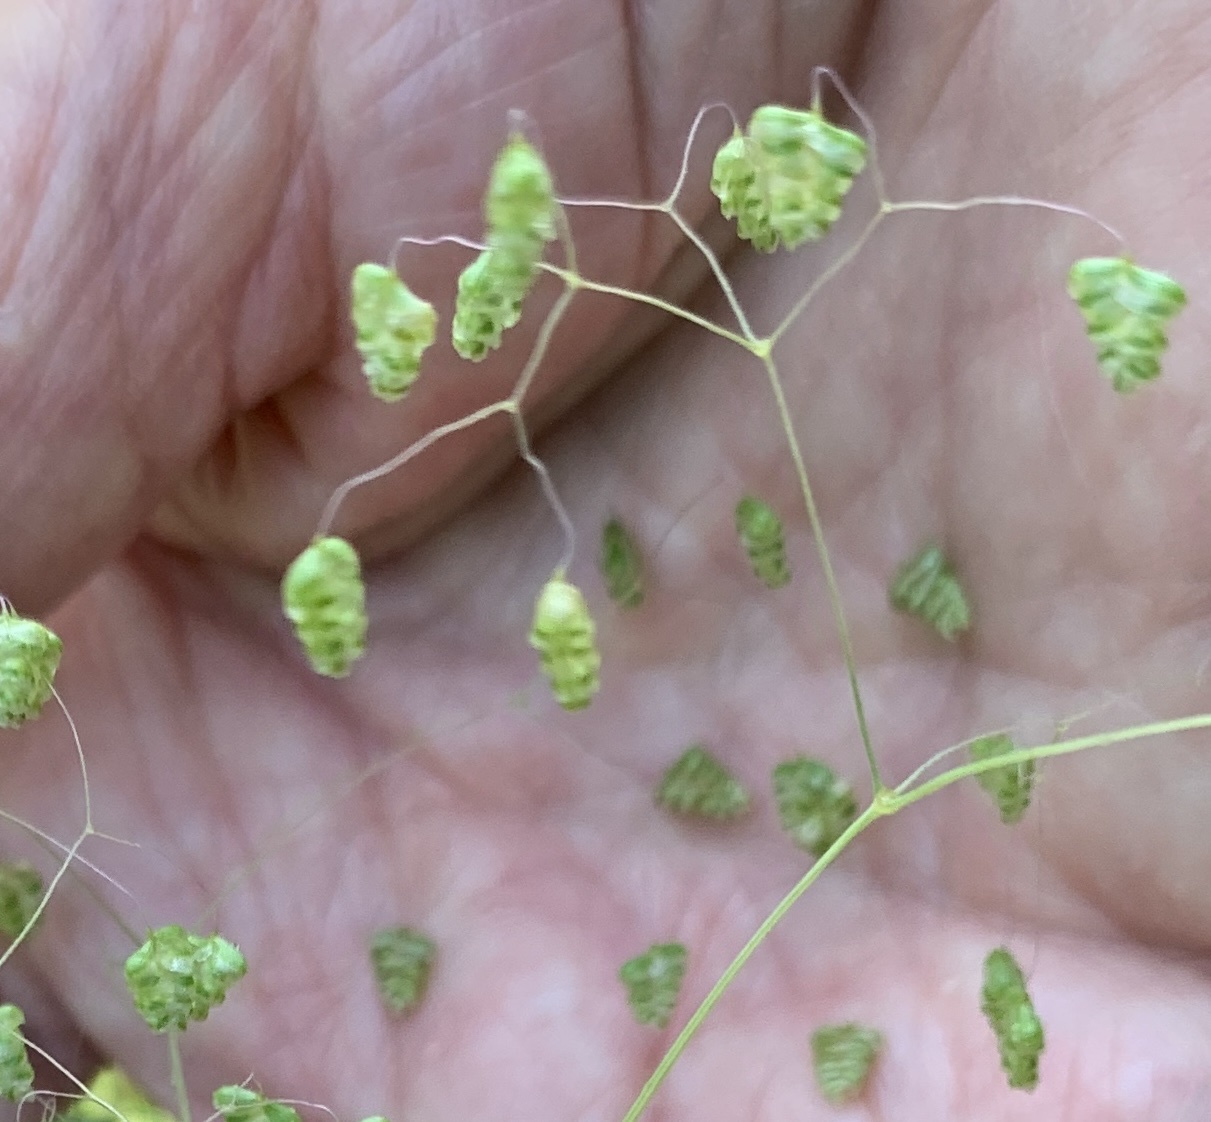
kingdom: Plantae
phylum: Tracheophyta
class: Liliopsida
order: Poales
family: Poaceae
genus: Briza
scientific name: Briza minor
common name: Lesser quaking-grass
